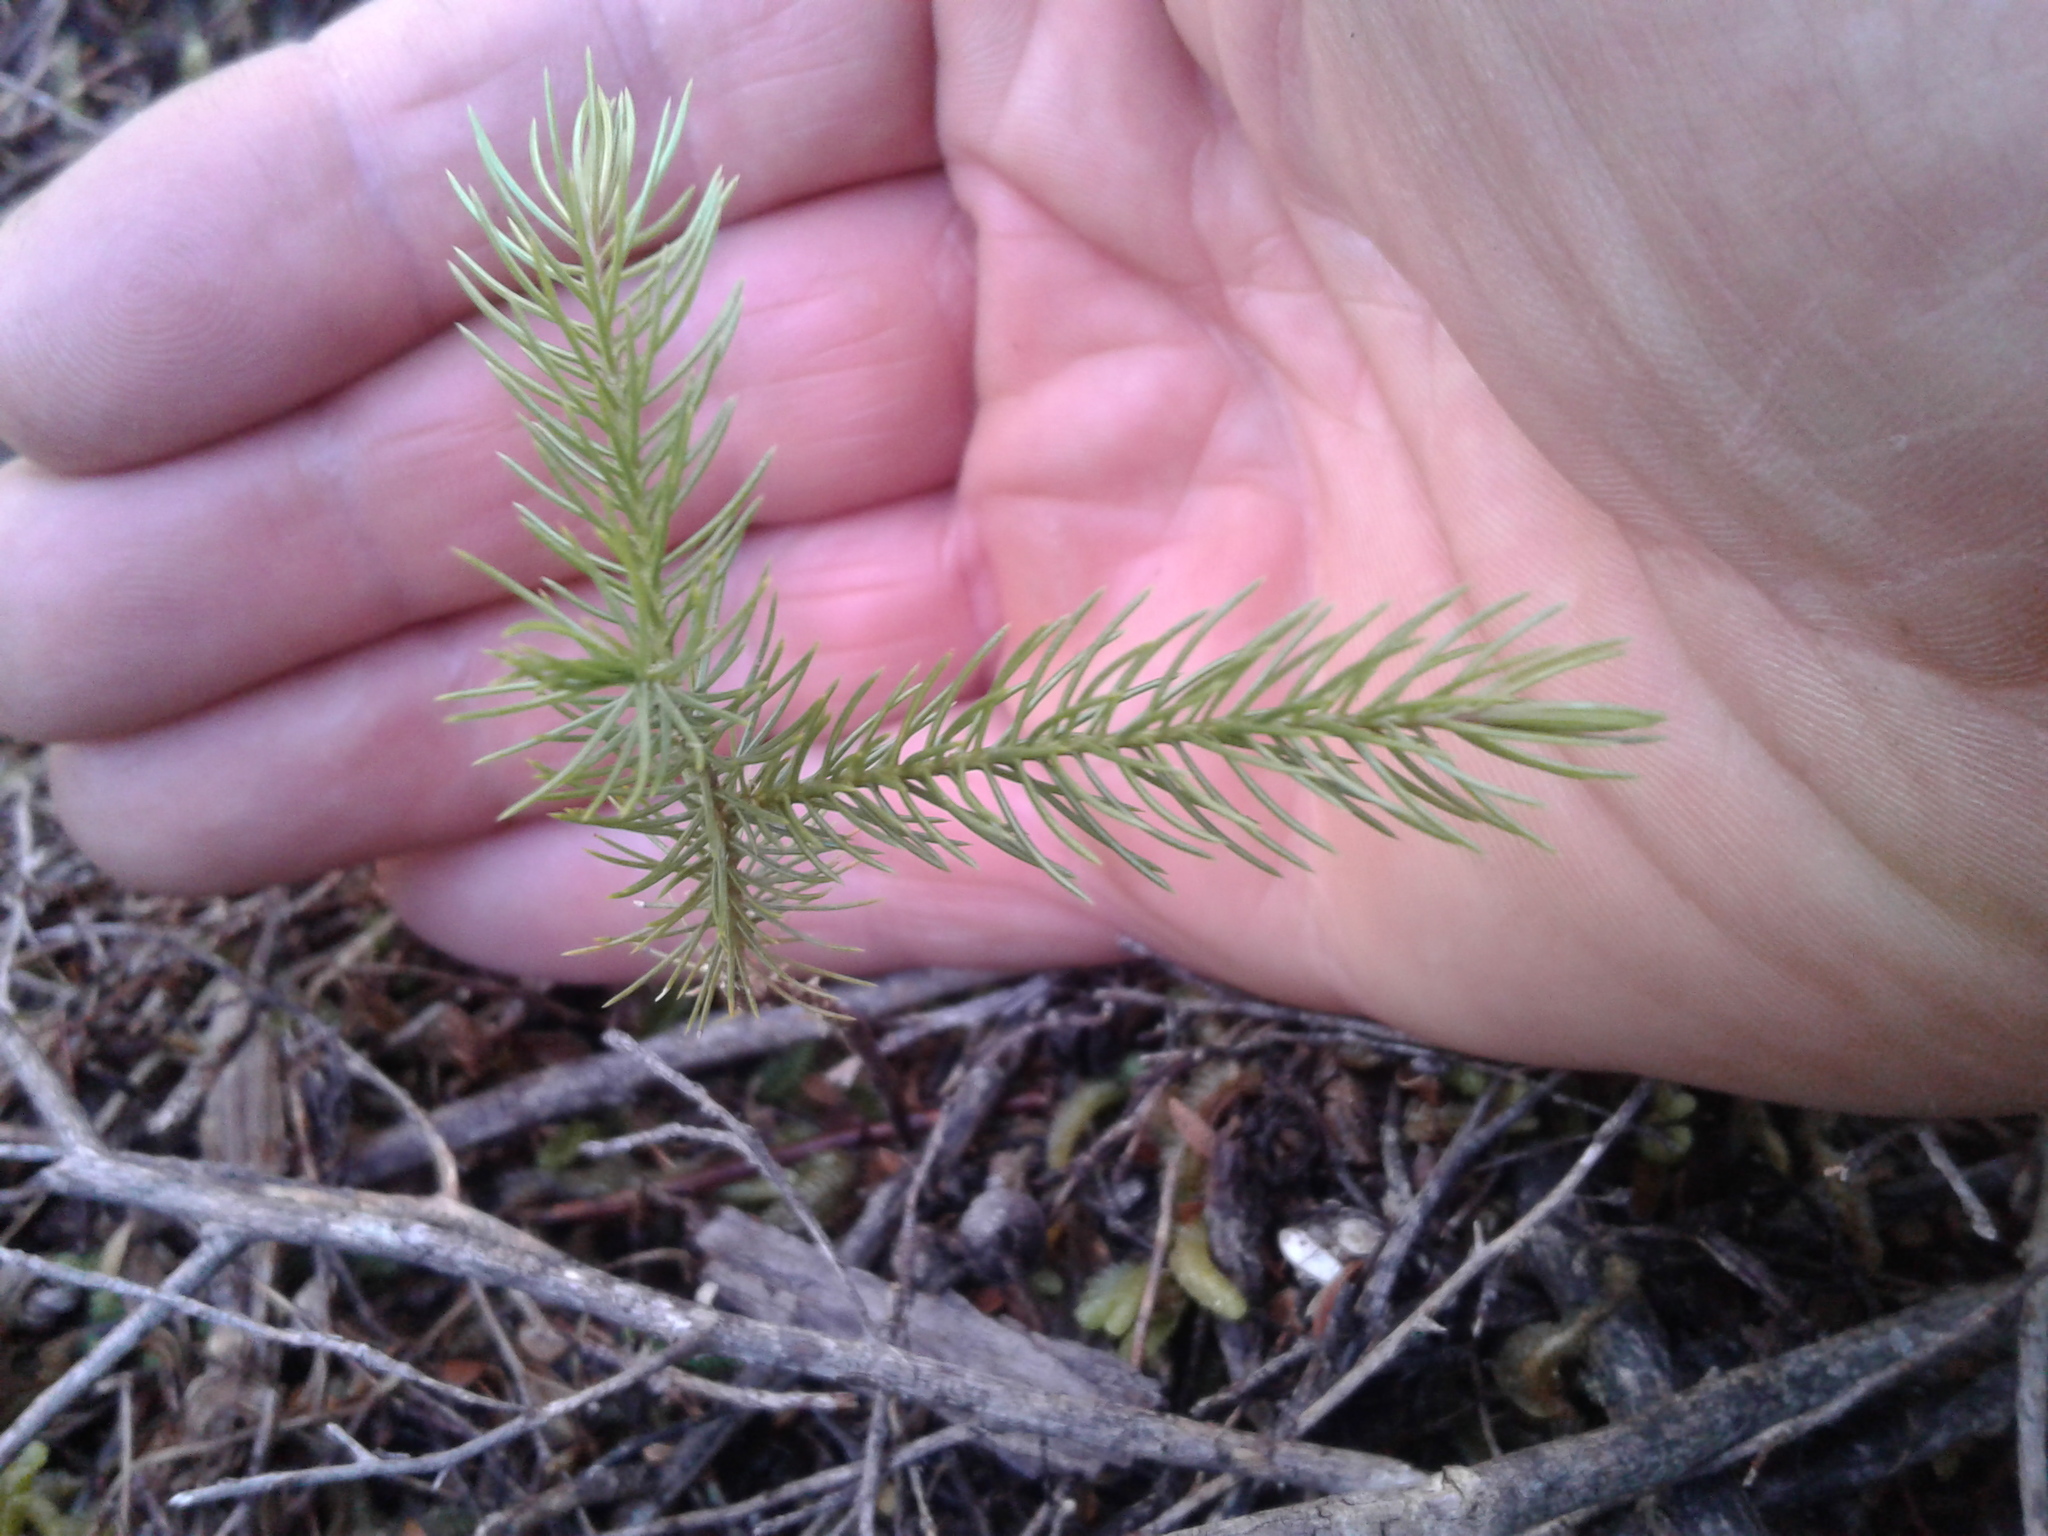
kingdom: Plantae
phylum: Tracheophyta
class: Pinopsida
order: Pinales
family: Podocarpaceae
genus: Dacrydium
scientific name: Dacrydium cupressinum
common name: Red pine
